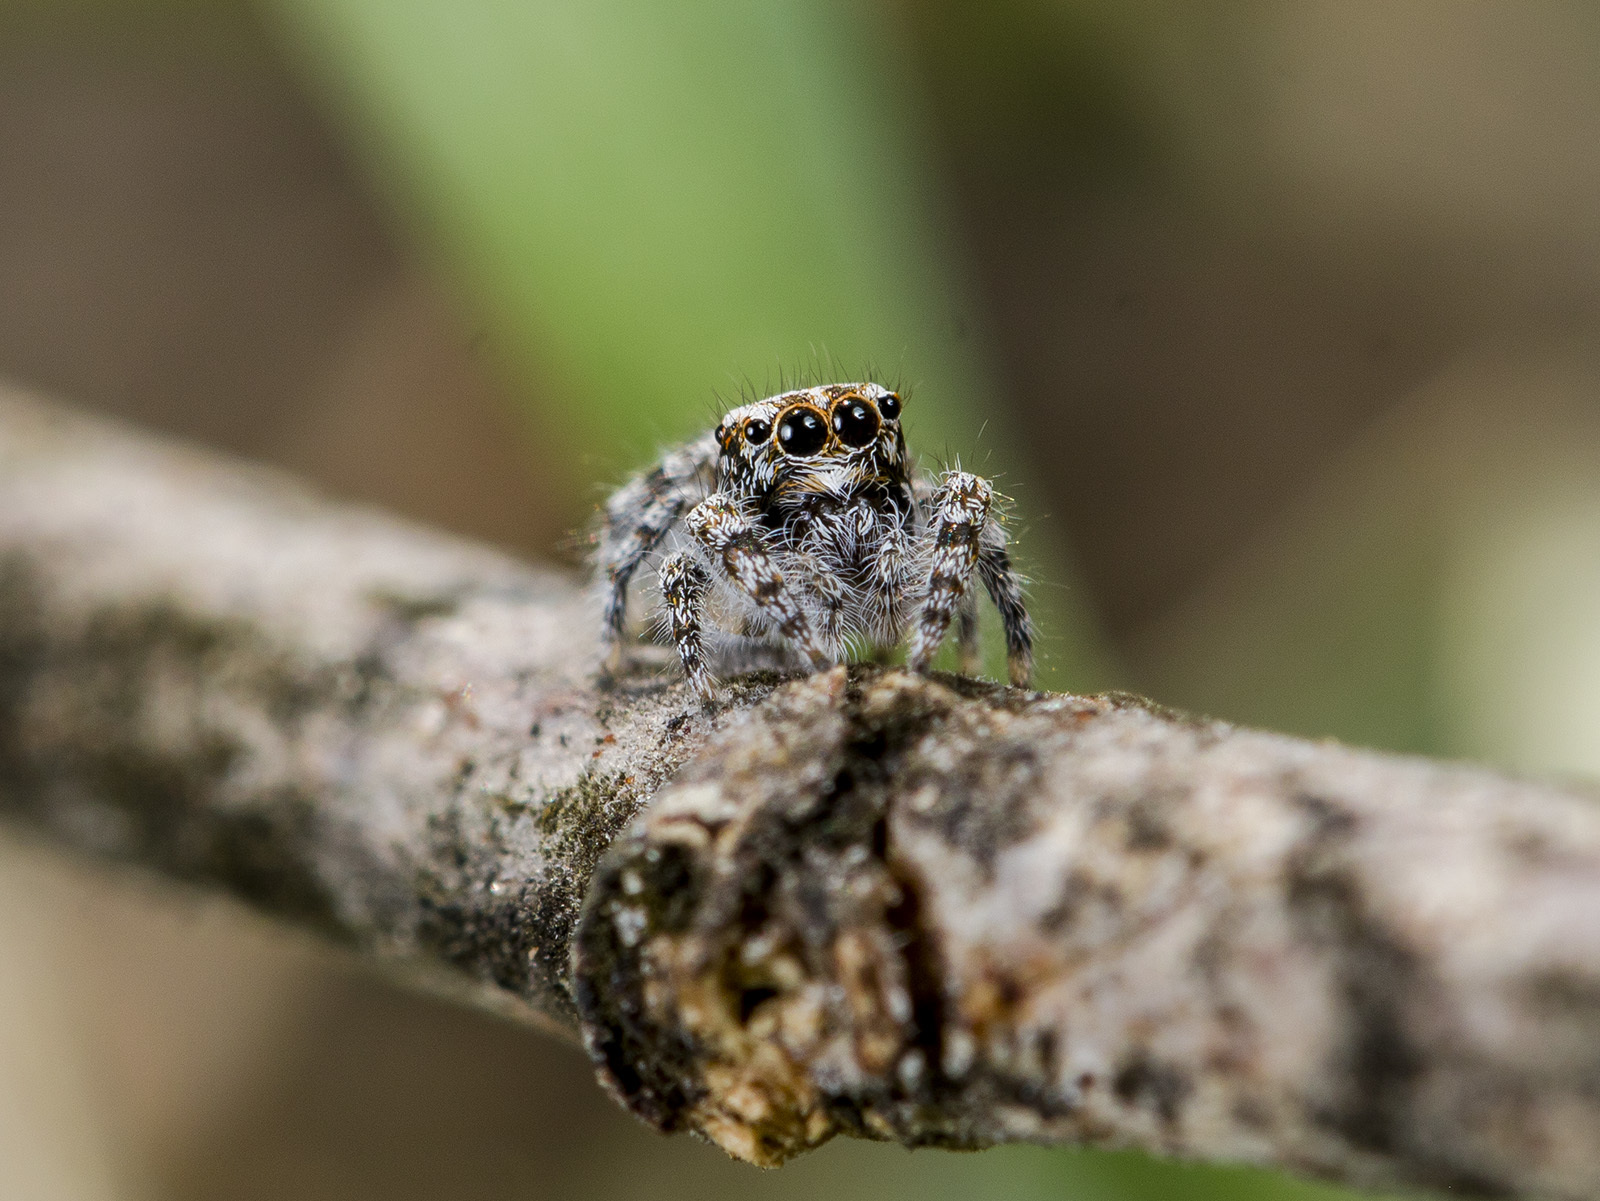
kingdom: Animalia
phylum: Arthropoda
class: Arachnida
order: Araneae
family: Salticidae
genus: Pseudomogrus
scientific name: Pseudomogrus albocinctus
